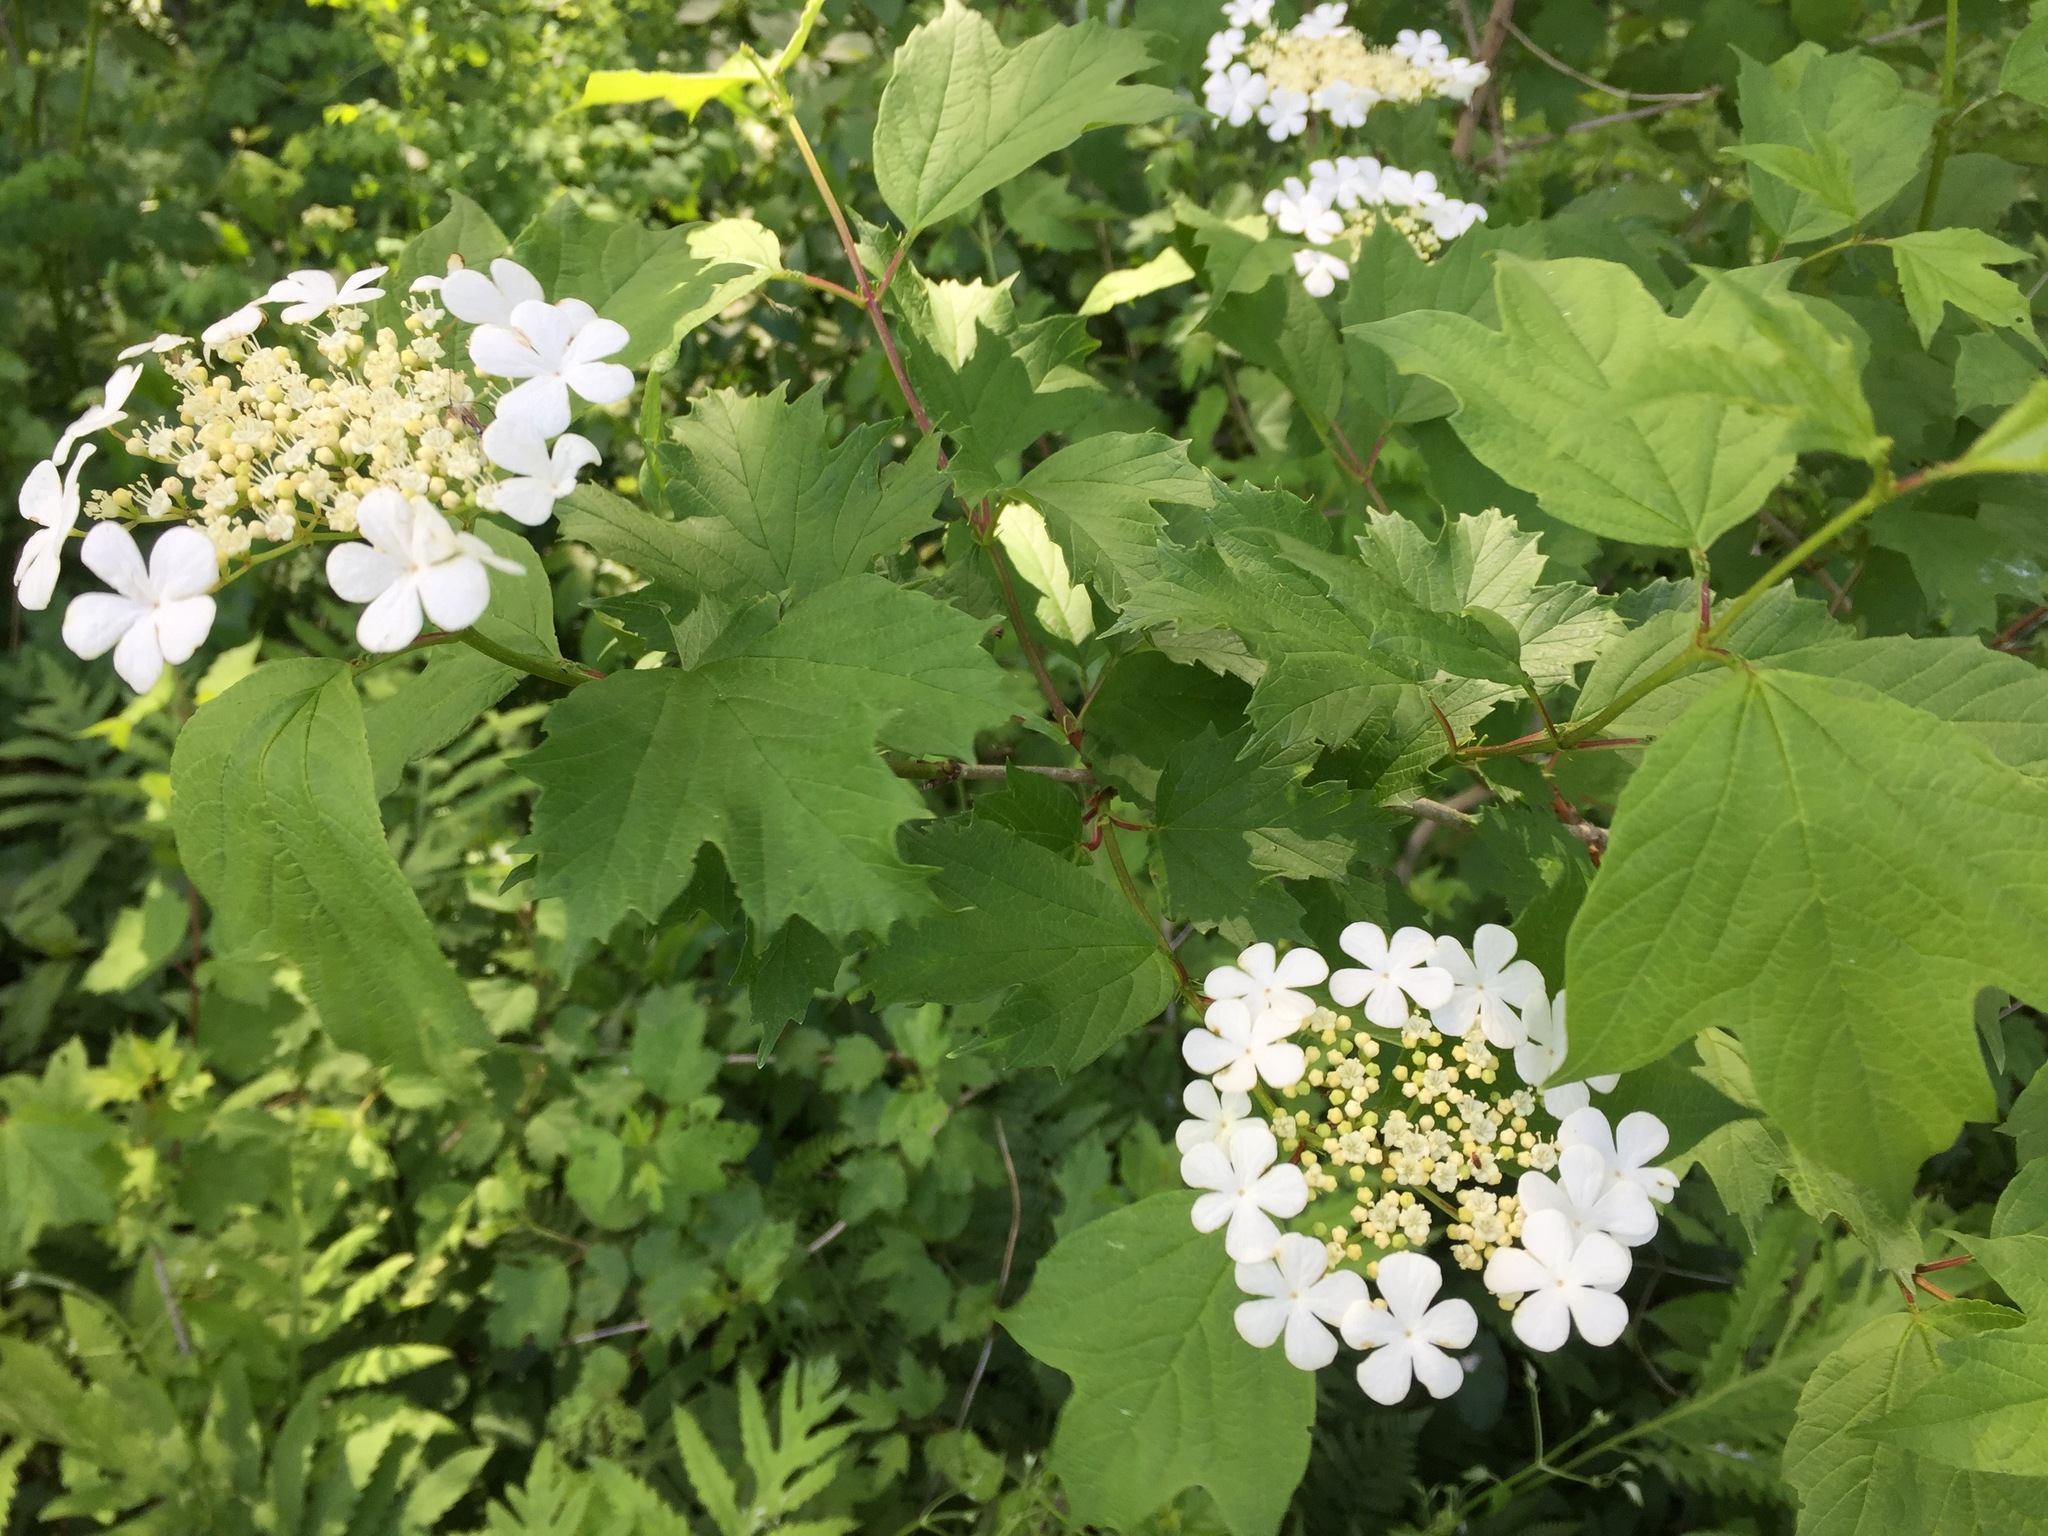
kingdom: Plantae
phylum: Tracheophyta
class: Magnoliopsida
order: Dipsacales
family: Viburnaceae
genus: Viburnum
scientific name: Viburnum opulus
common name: Guelder-rose
